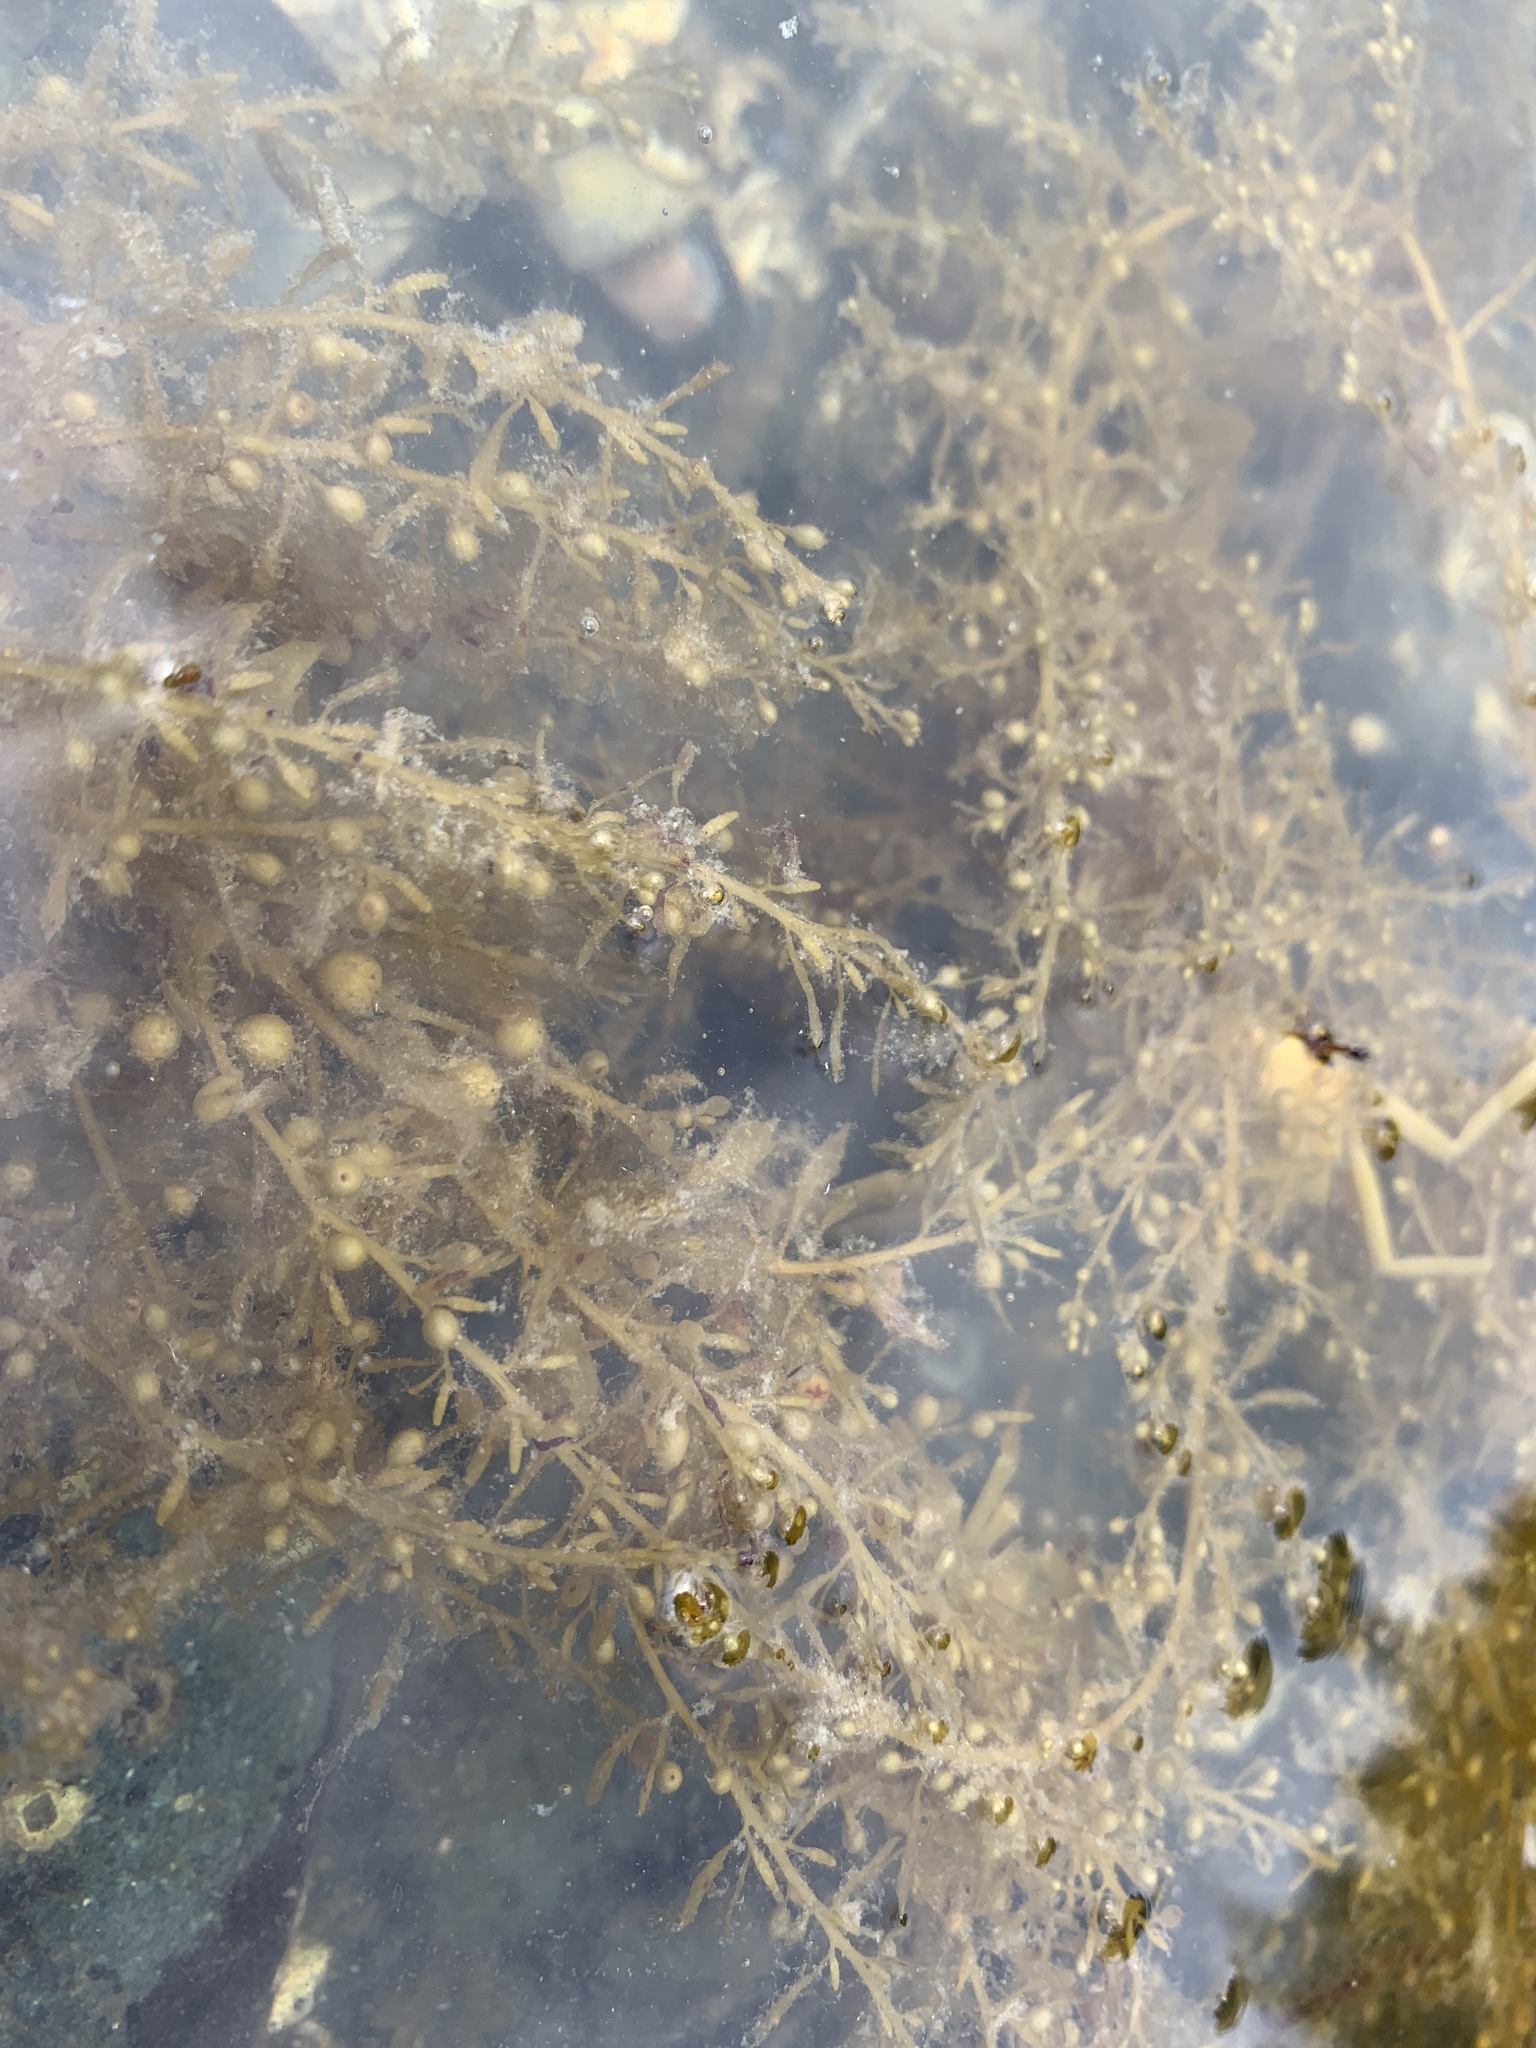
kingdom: Chromista
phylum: Ochrophyta
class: Phaeophyceae
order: Fucales
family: Sargassaceae
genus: Sargassum
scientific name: Sargassum muticum
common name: Japweed
